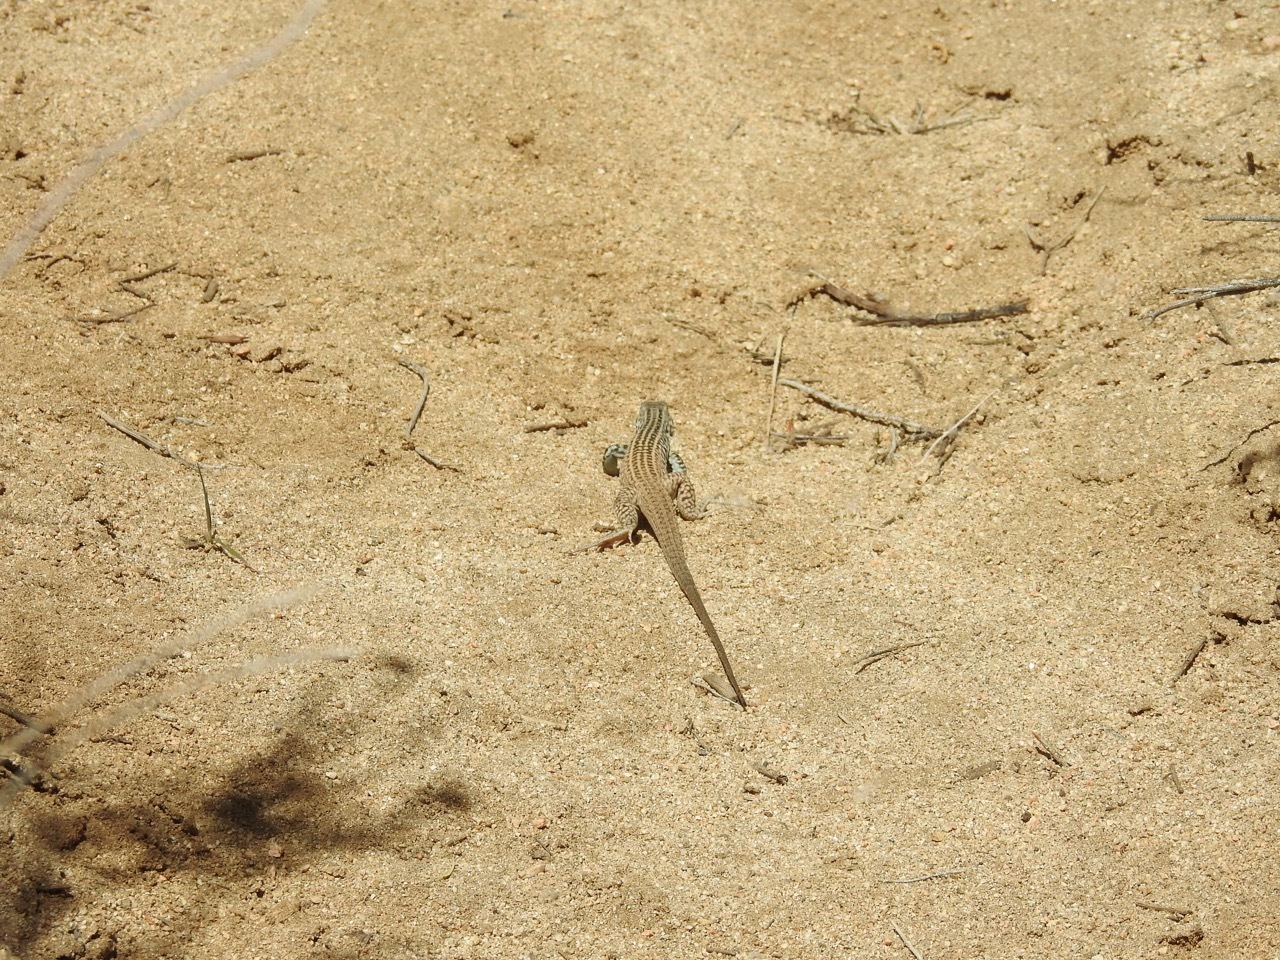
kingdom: Animalia
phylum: Chordata
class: Squamata
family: Teiidae
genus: Aspidoscelis
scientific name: Aspidoscelis tigris
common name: Tiger whiptail
